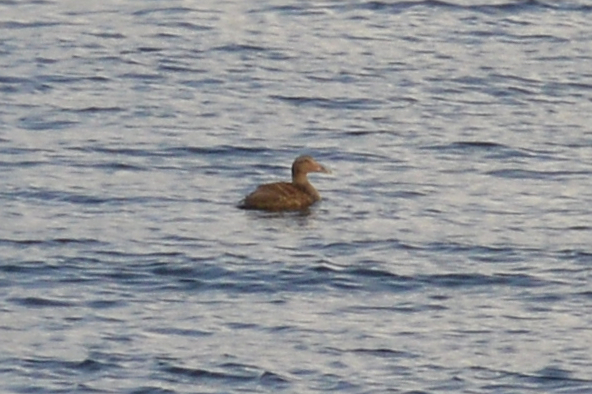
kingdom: Animalia
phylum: Chordata
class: Aves
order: Anseriformes
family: Anatidae
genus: Somateria
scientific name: Somateria mollissima
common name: Common eider
